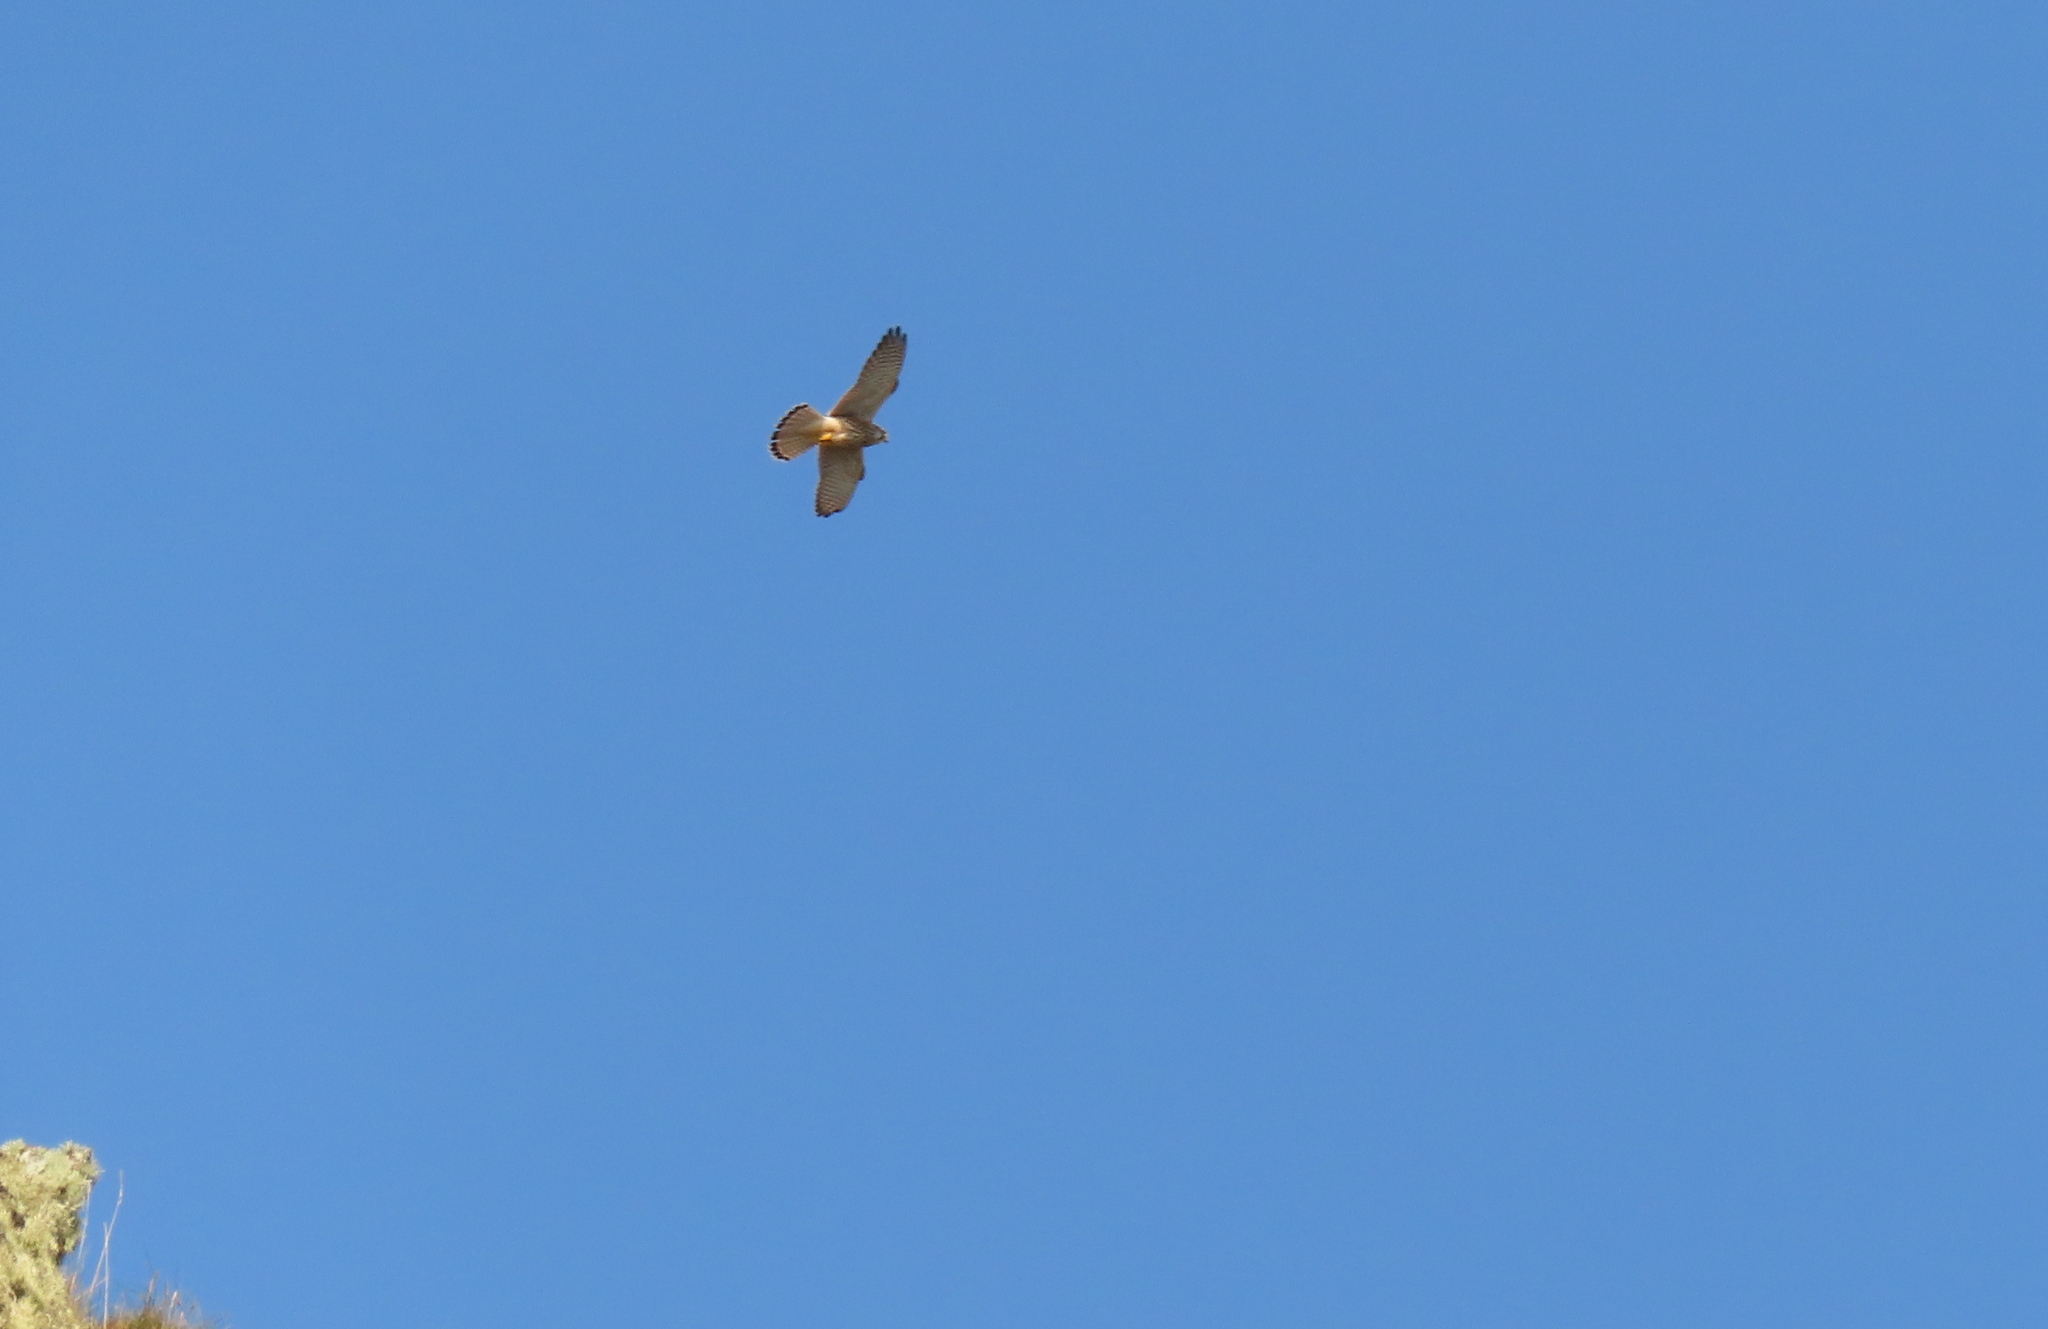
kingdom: Animalia
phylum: Chordata
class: Aves
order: Falconiformes
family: Falconidae
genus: Falco
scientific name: Falco tinnunculus
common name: Common kestrel
